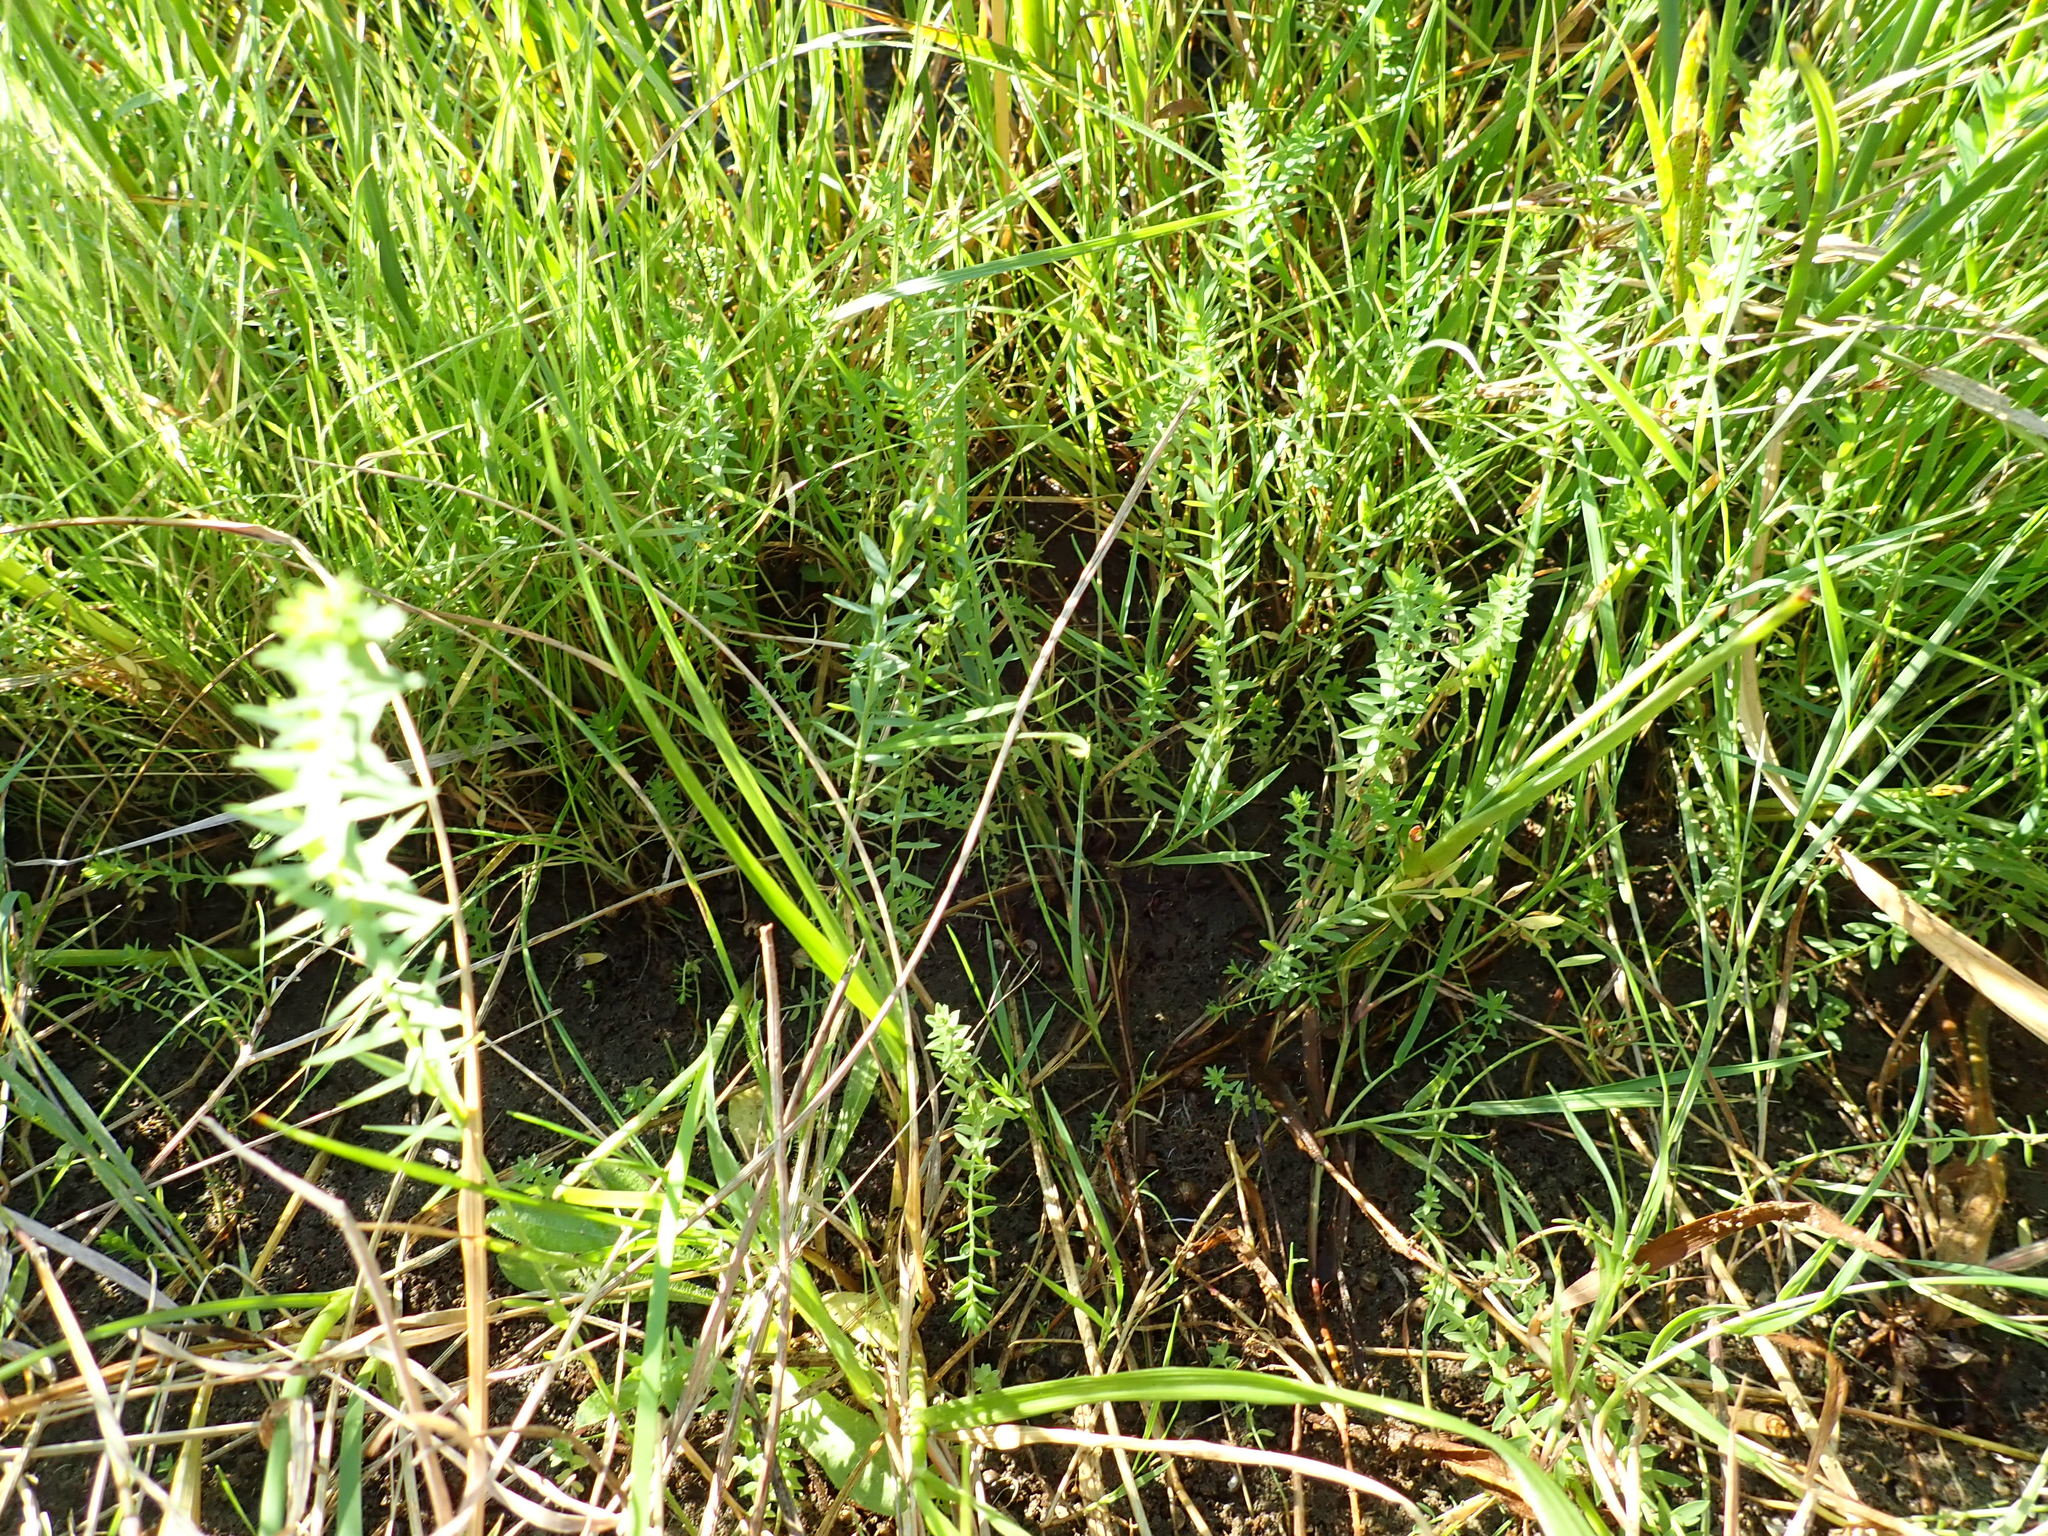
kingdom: Plantae
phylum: Tracheophyta
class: Magnoliopsida
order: Lamiales
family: Plantaginaceae
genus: Linaria
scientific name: Linaria purpurea
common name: Purple toadflax
